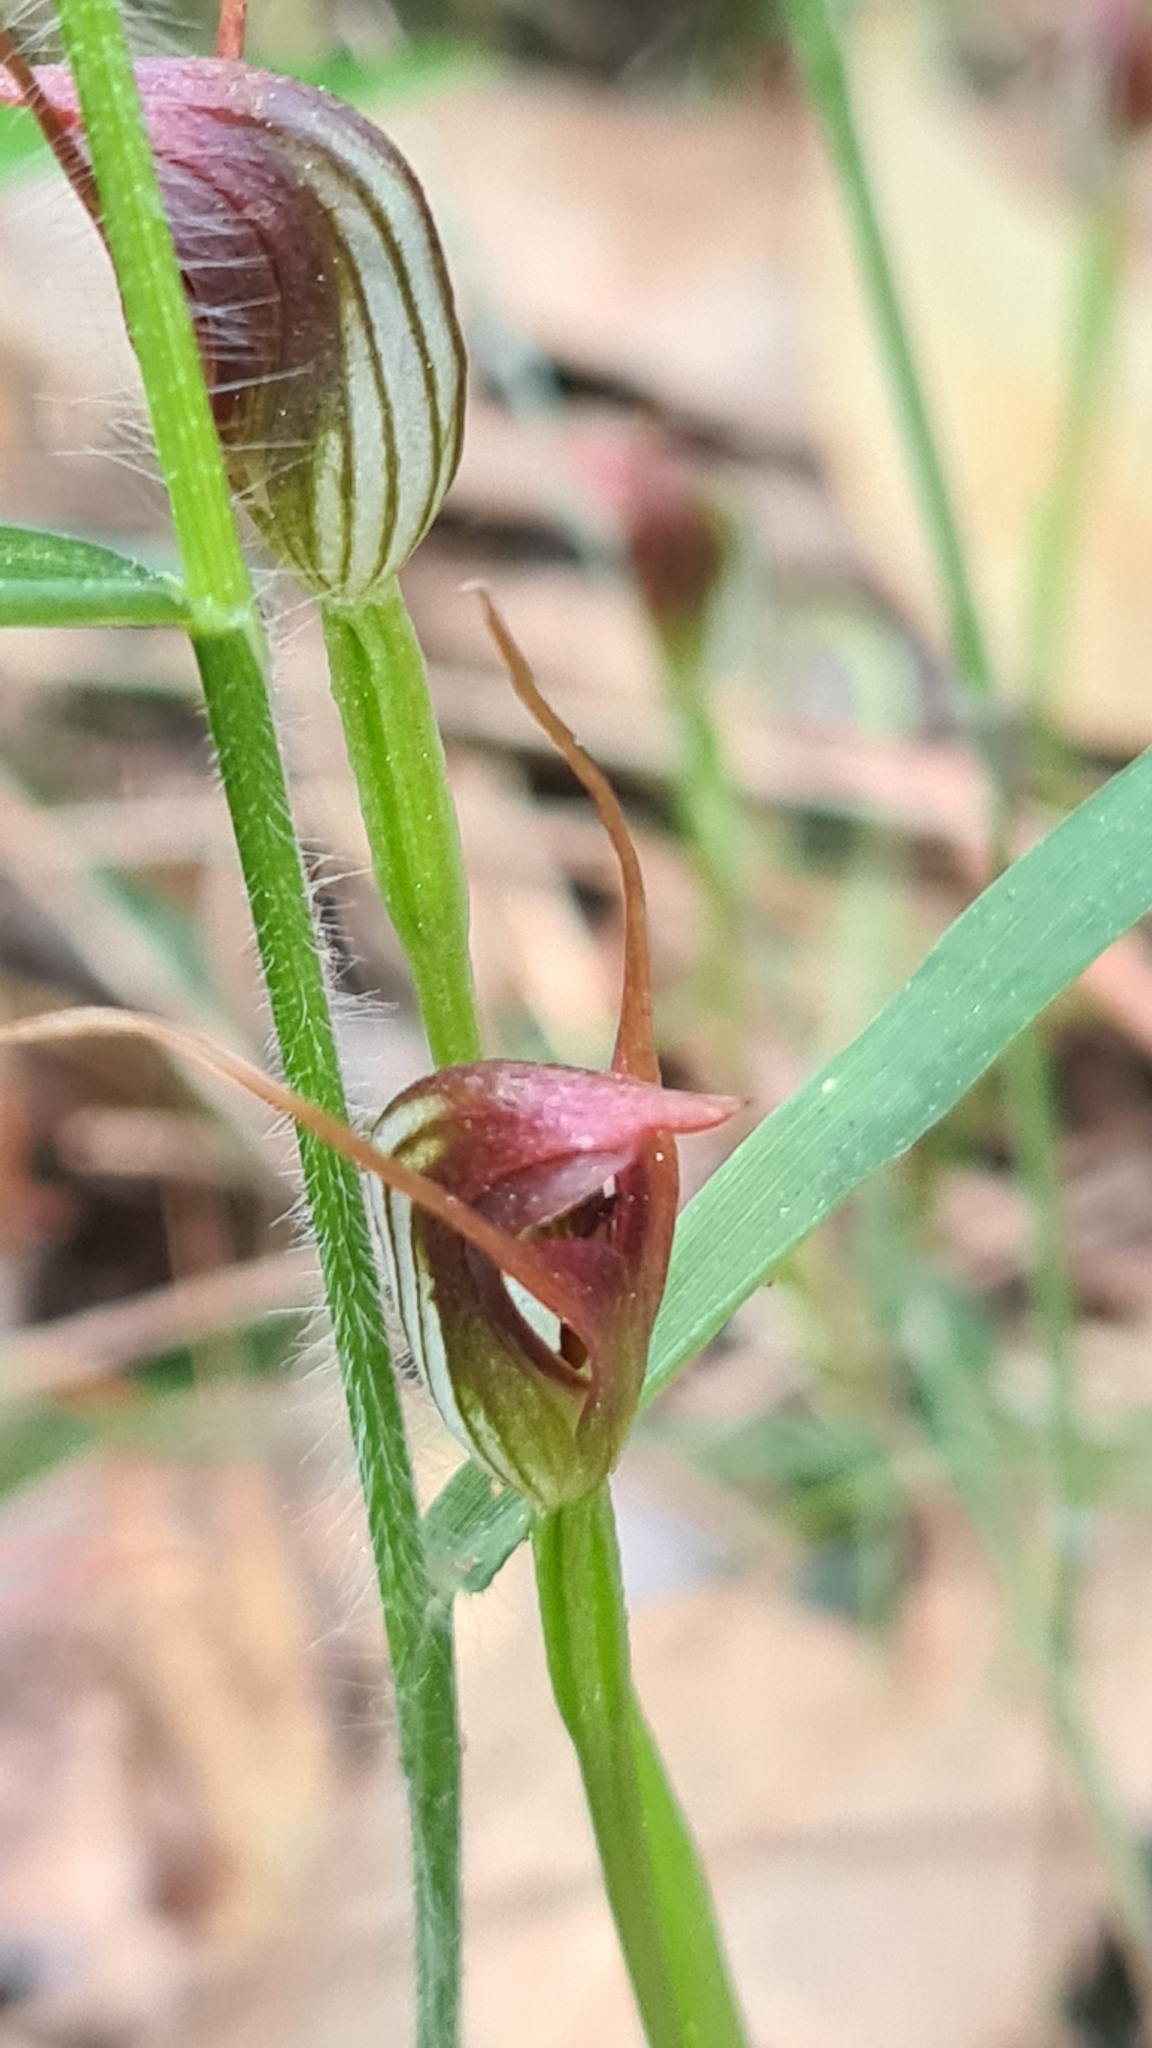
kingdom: Plantae
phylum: Tracheophyta
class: Liliopsida
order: Asparagales
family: Orchidaceae
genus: Pterostylis
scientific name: Pterostylis oblonga
